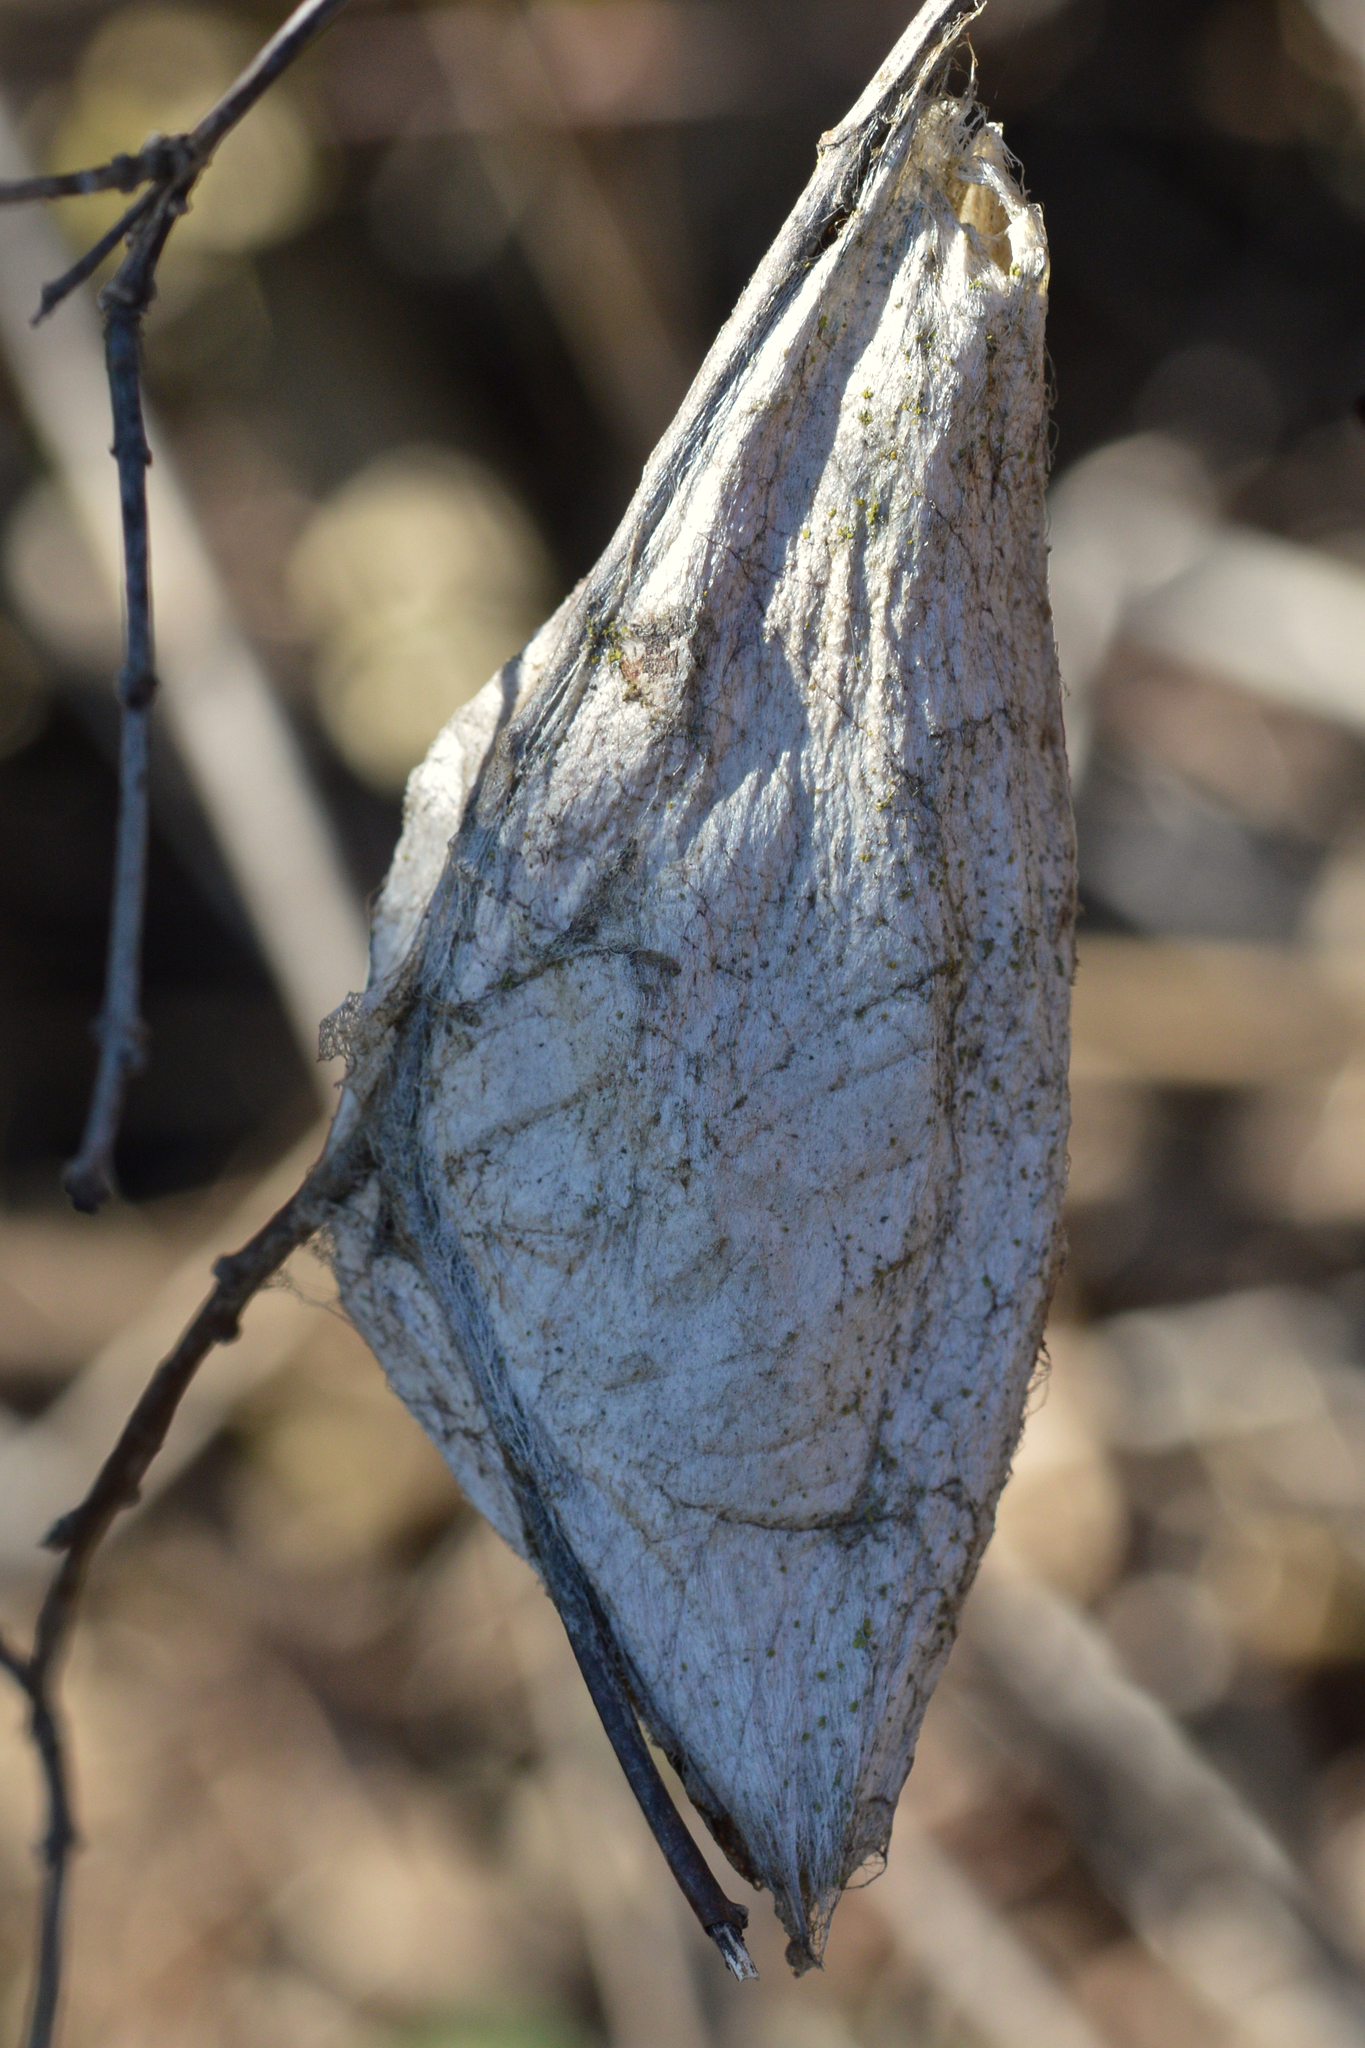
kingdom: Animalia
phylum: Arthropoda
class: Insecta
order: Lepidoptera
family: Saturniidae
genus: Hyalophora
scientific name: Hyalophora cecropia
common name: Cecropia silkmoth
